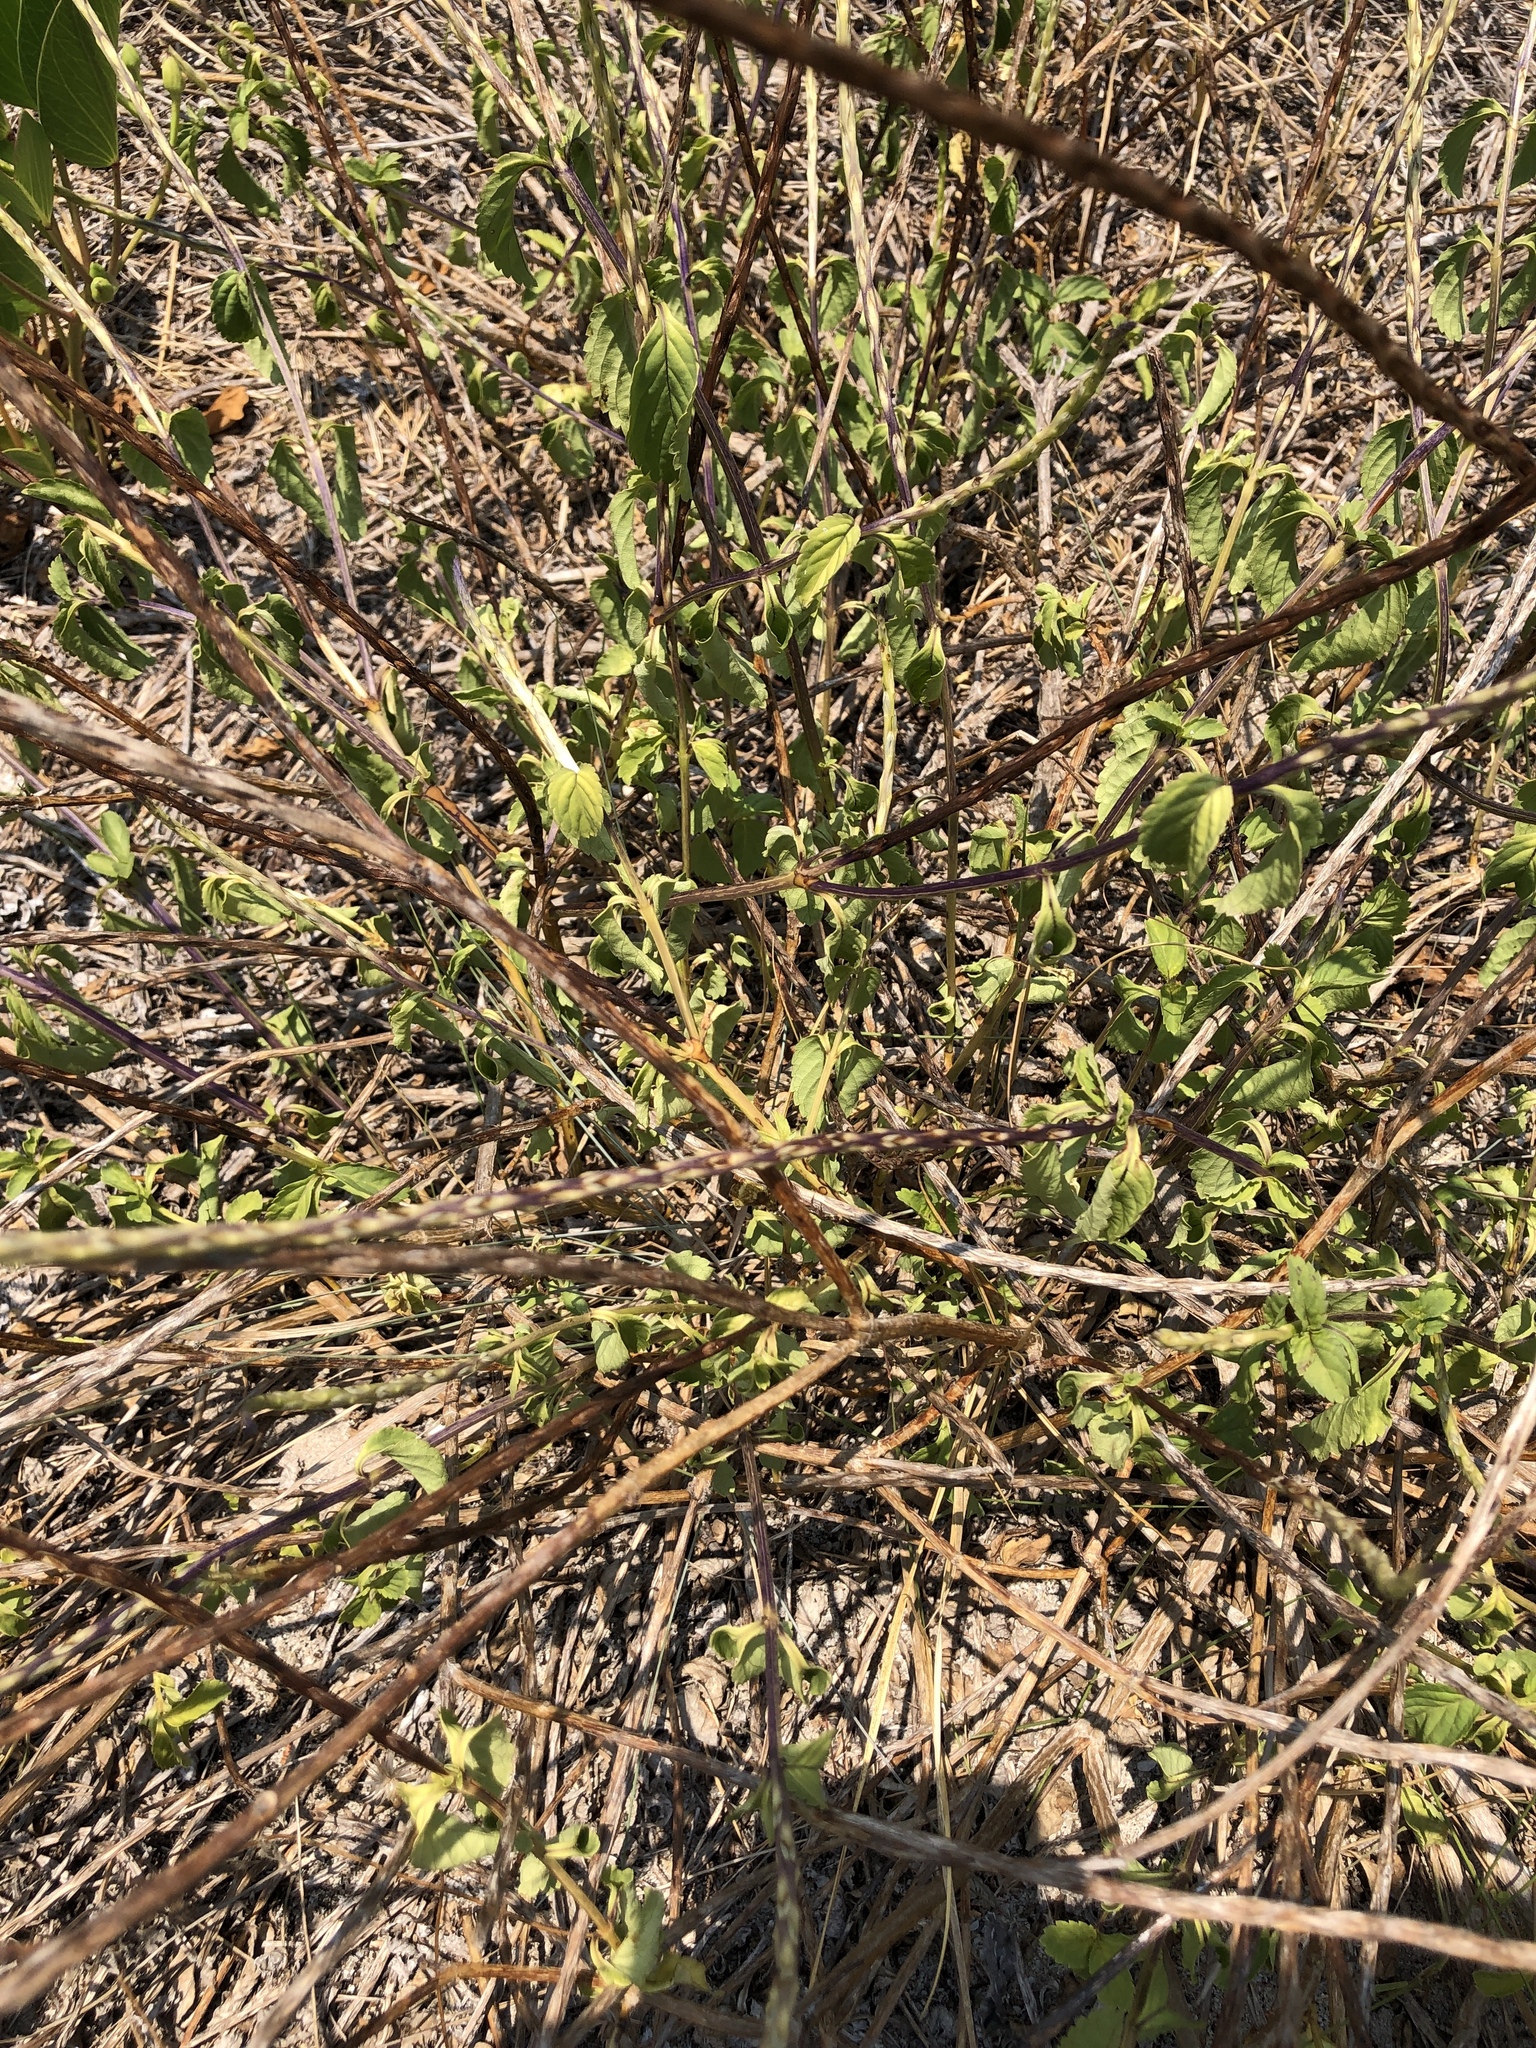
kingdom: Plantae
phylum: Tracheophyta
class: Magnoliopsida
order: Lamiales
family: Verbenaceae
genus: Stachytarpheta
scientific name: Stachytarpheta jamaicensis
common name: Light-blue snakeweed
